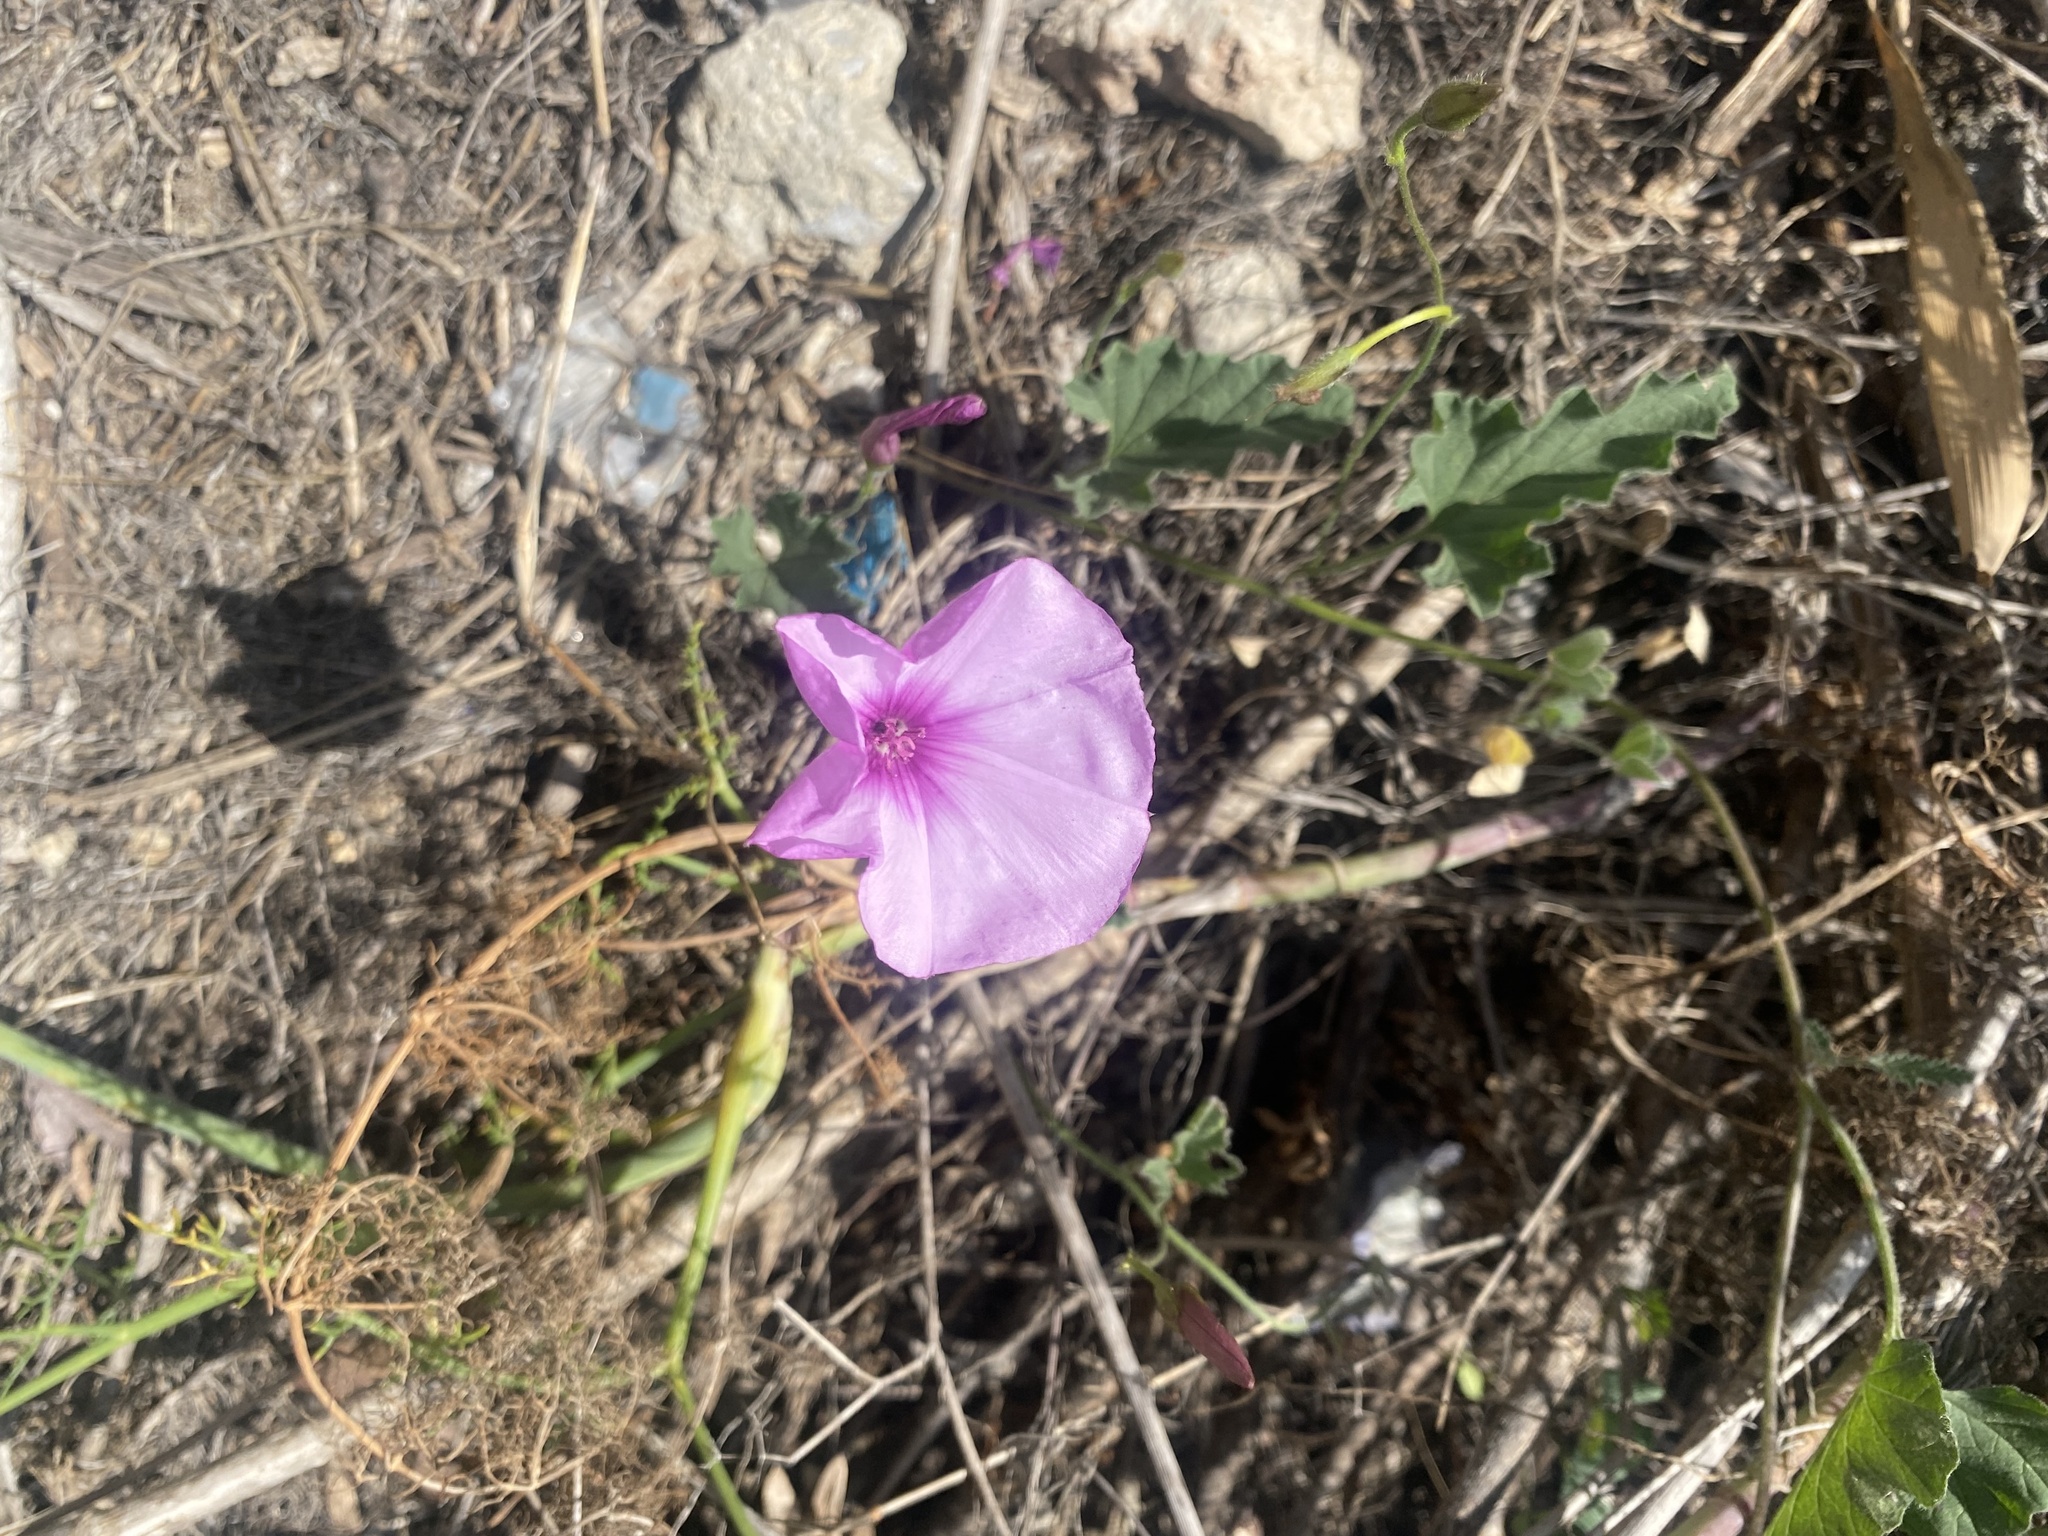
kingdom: Plantae
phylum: Tracheophyta
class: Magnoliopsida
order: Solanales
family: Convolvulaceae
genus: Convolvulus
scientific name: Convolvulus althaeoides
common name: Mallow bindweed
